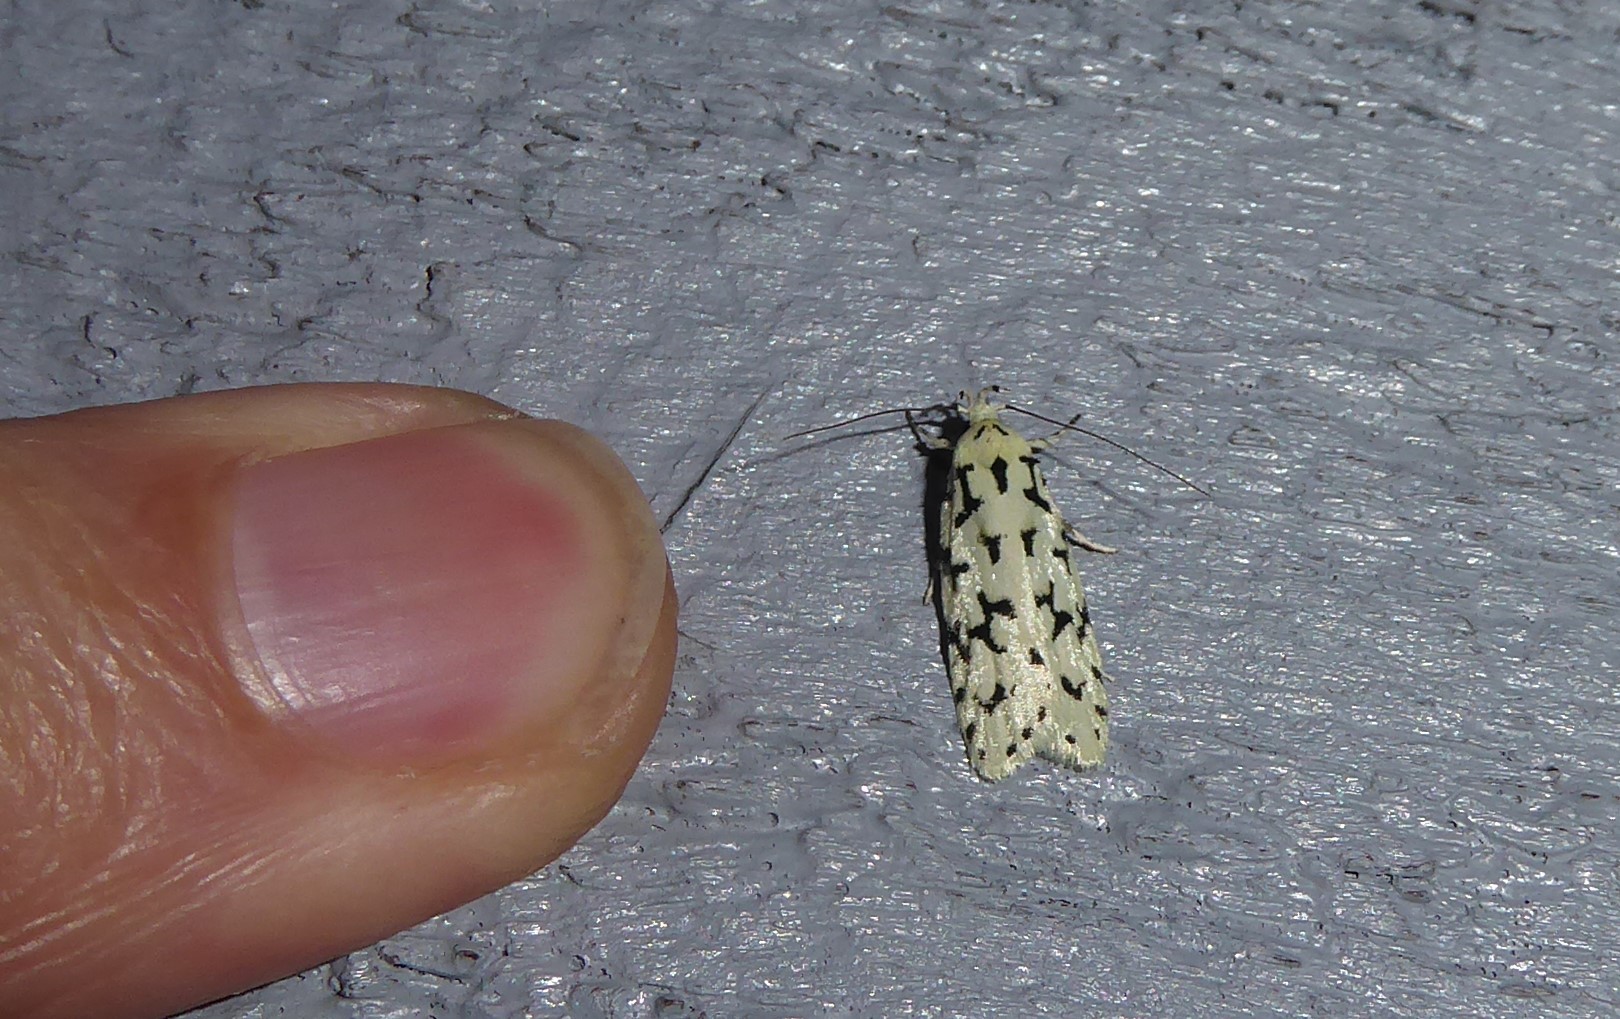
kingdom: Animalia
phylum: Arthropoda
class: Insecta
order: Lepidoptera
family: Oecophoridae
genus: Izatha
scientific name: Izatha huttoni
